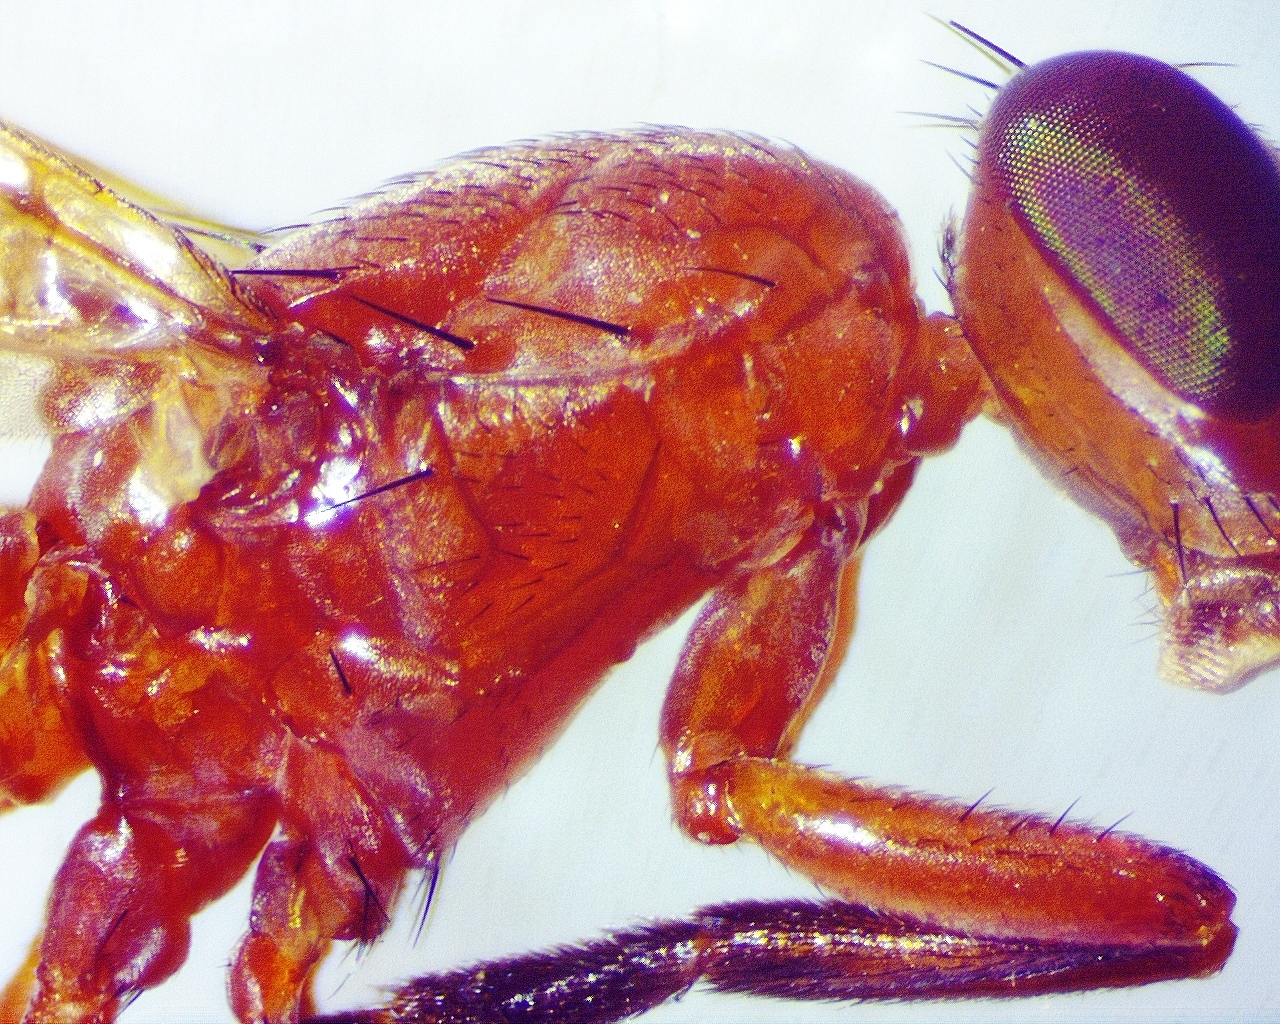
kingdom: Animalia
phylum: Arthropoda
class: Insecta
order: Diptera
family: Ulidiidae
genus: Zacompsia
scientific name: Zacompsia fulva
